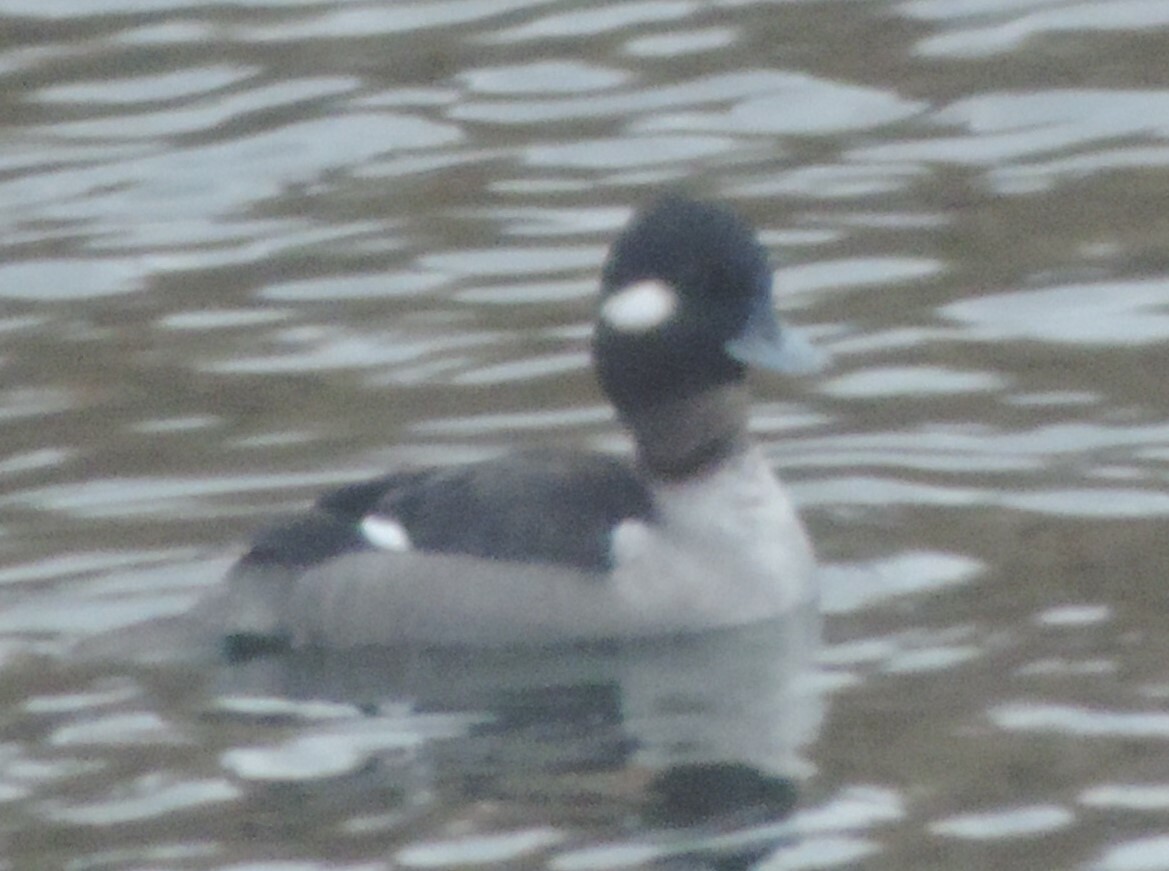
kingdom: Animalia
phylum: Chordata
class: Aves
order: Anseriformes
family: Anatidae
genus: Bucephala
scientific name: Bucephala albeola
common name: Bufflehead
